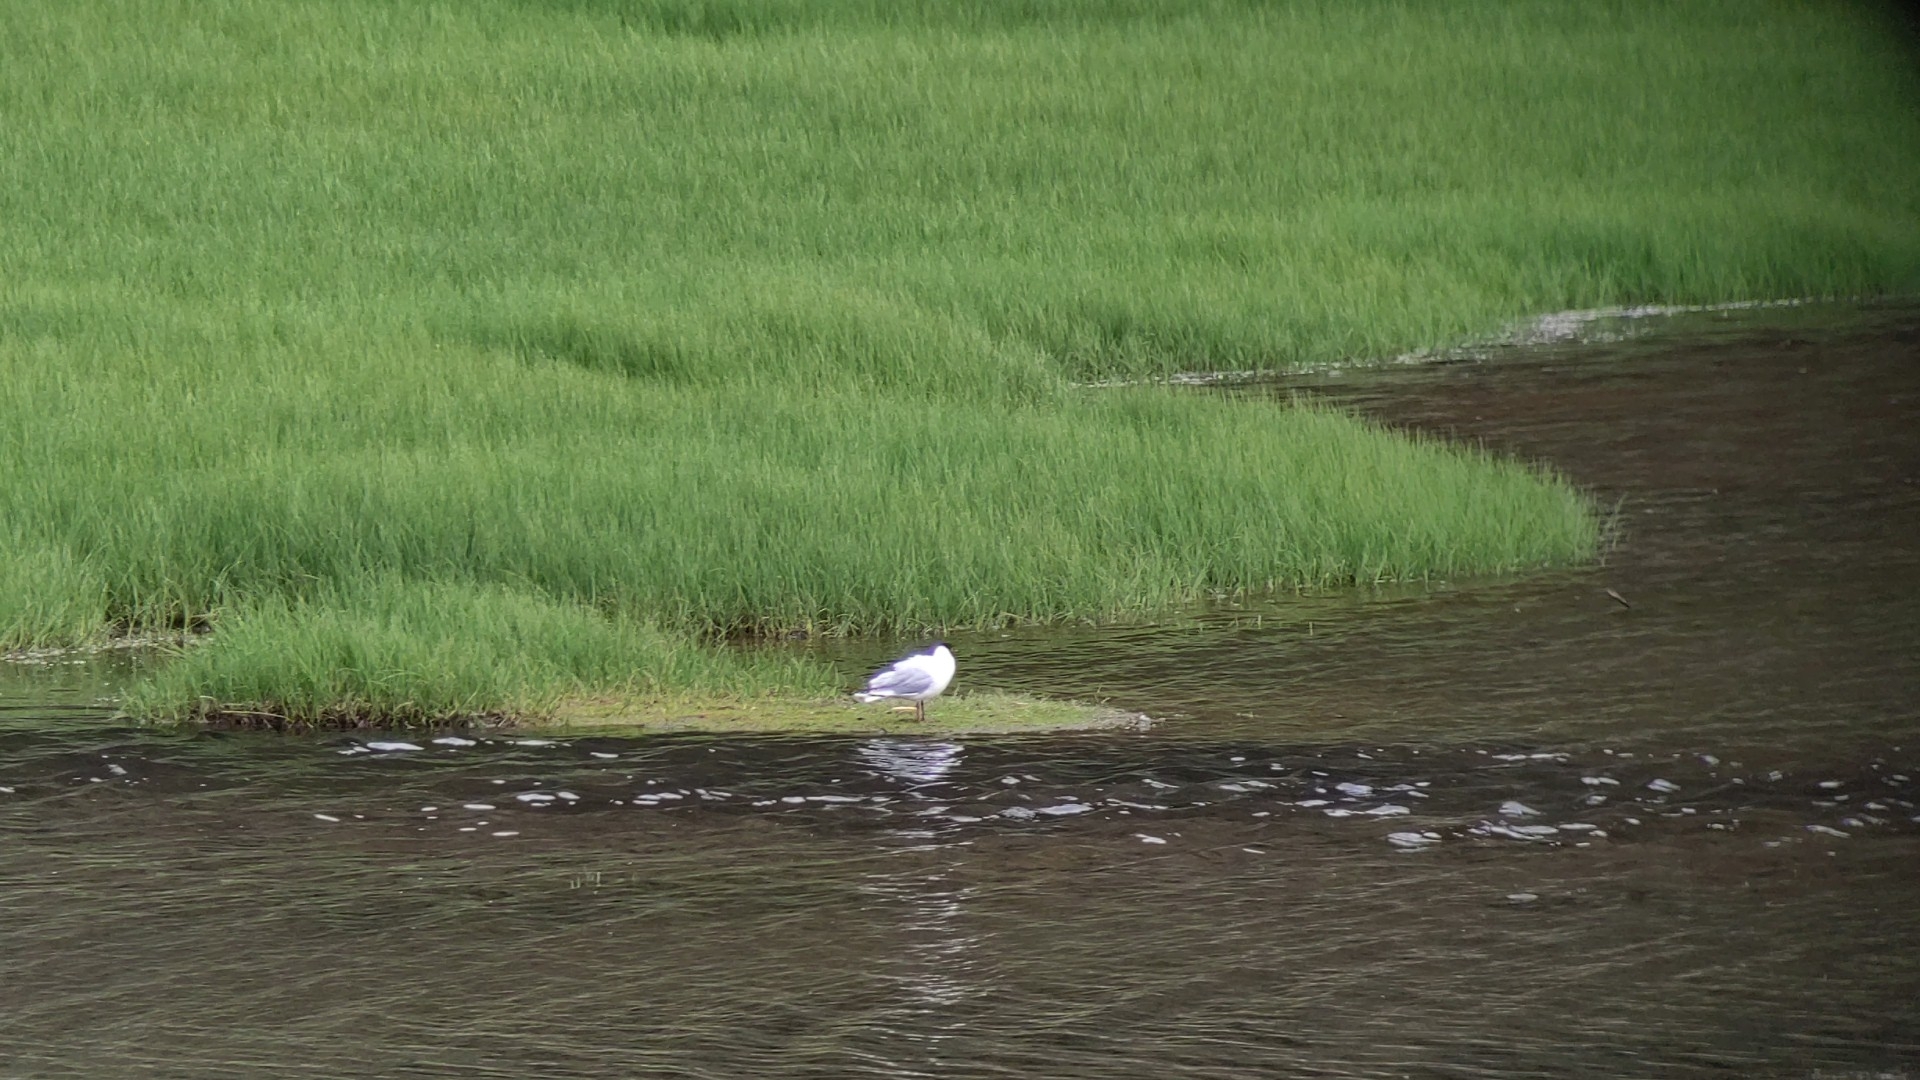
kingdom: Animalia
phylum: Chordata
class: Aves
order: Charadriiformes
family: Laridae
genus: Chroicocephalus
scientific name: Chroicocephalus serranus
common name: Andean gull
